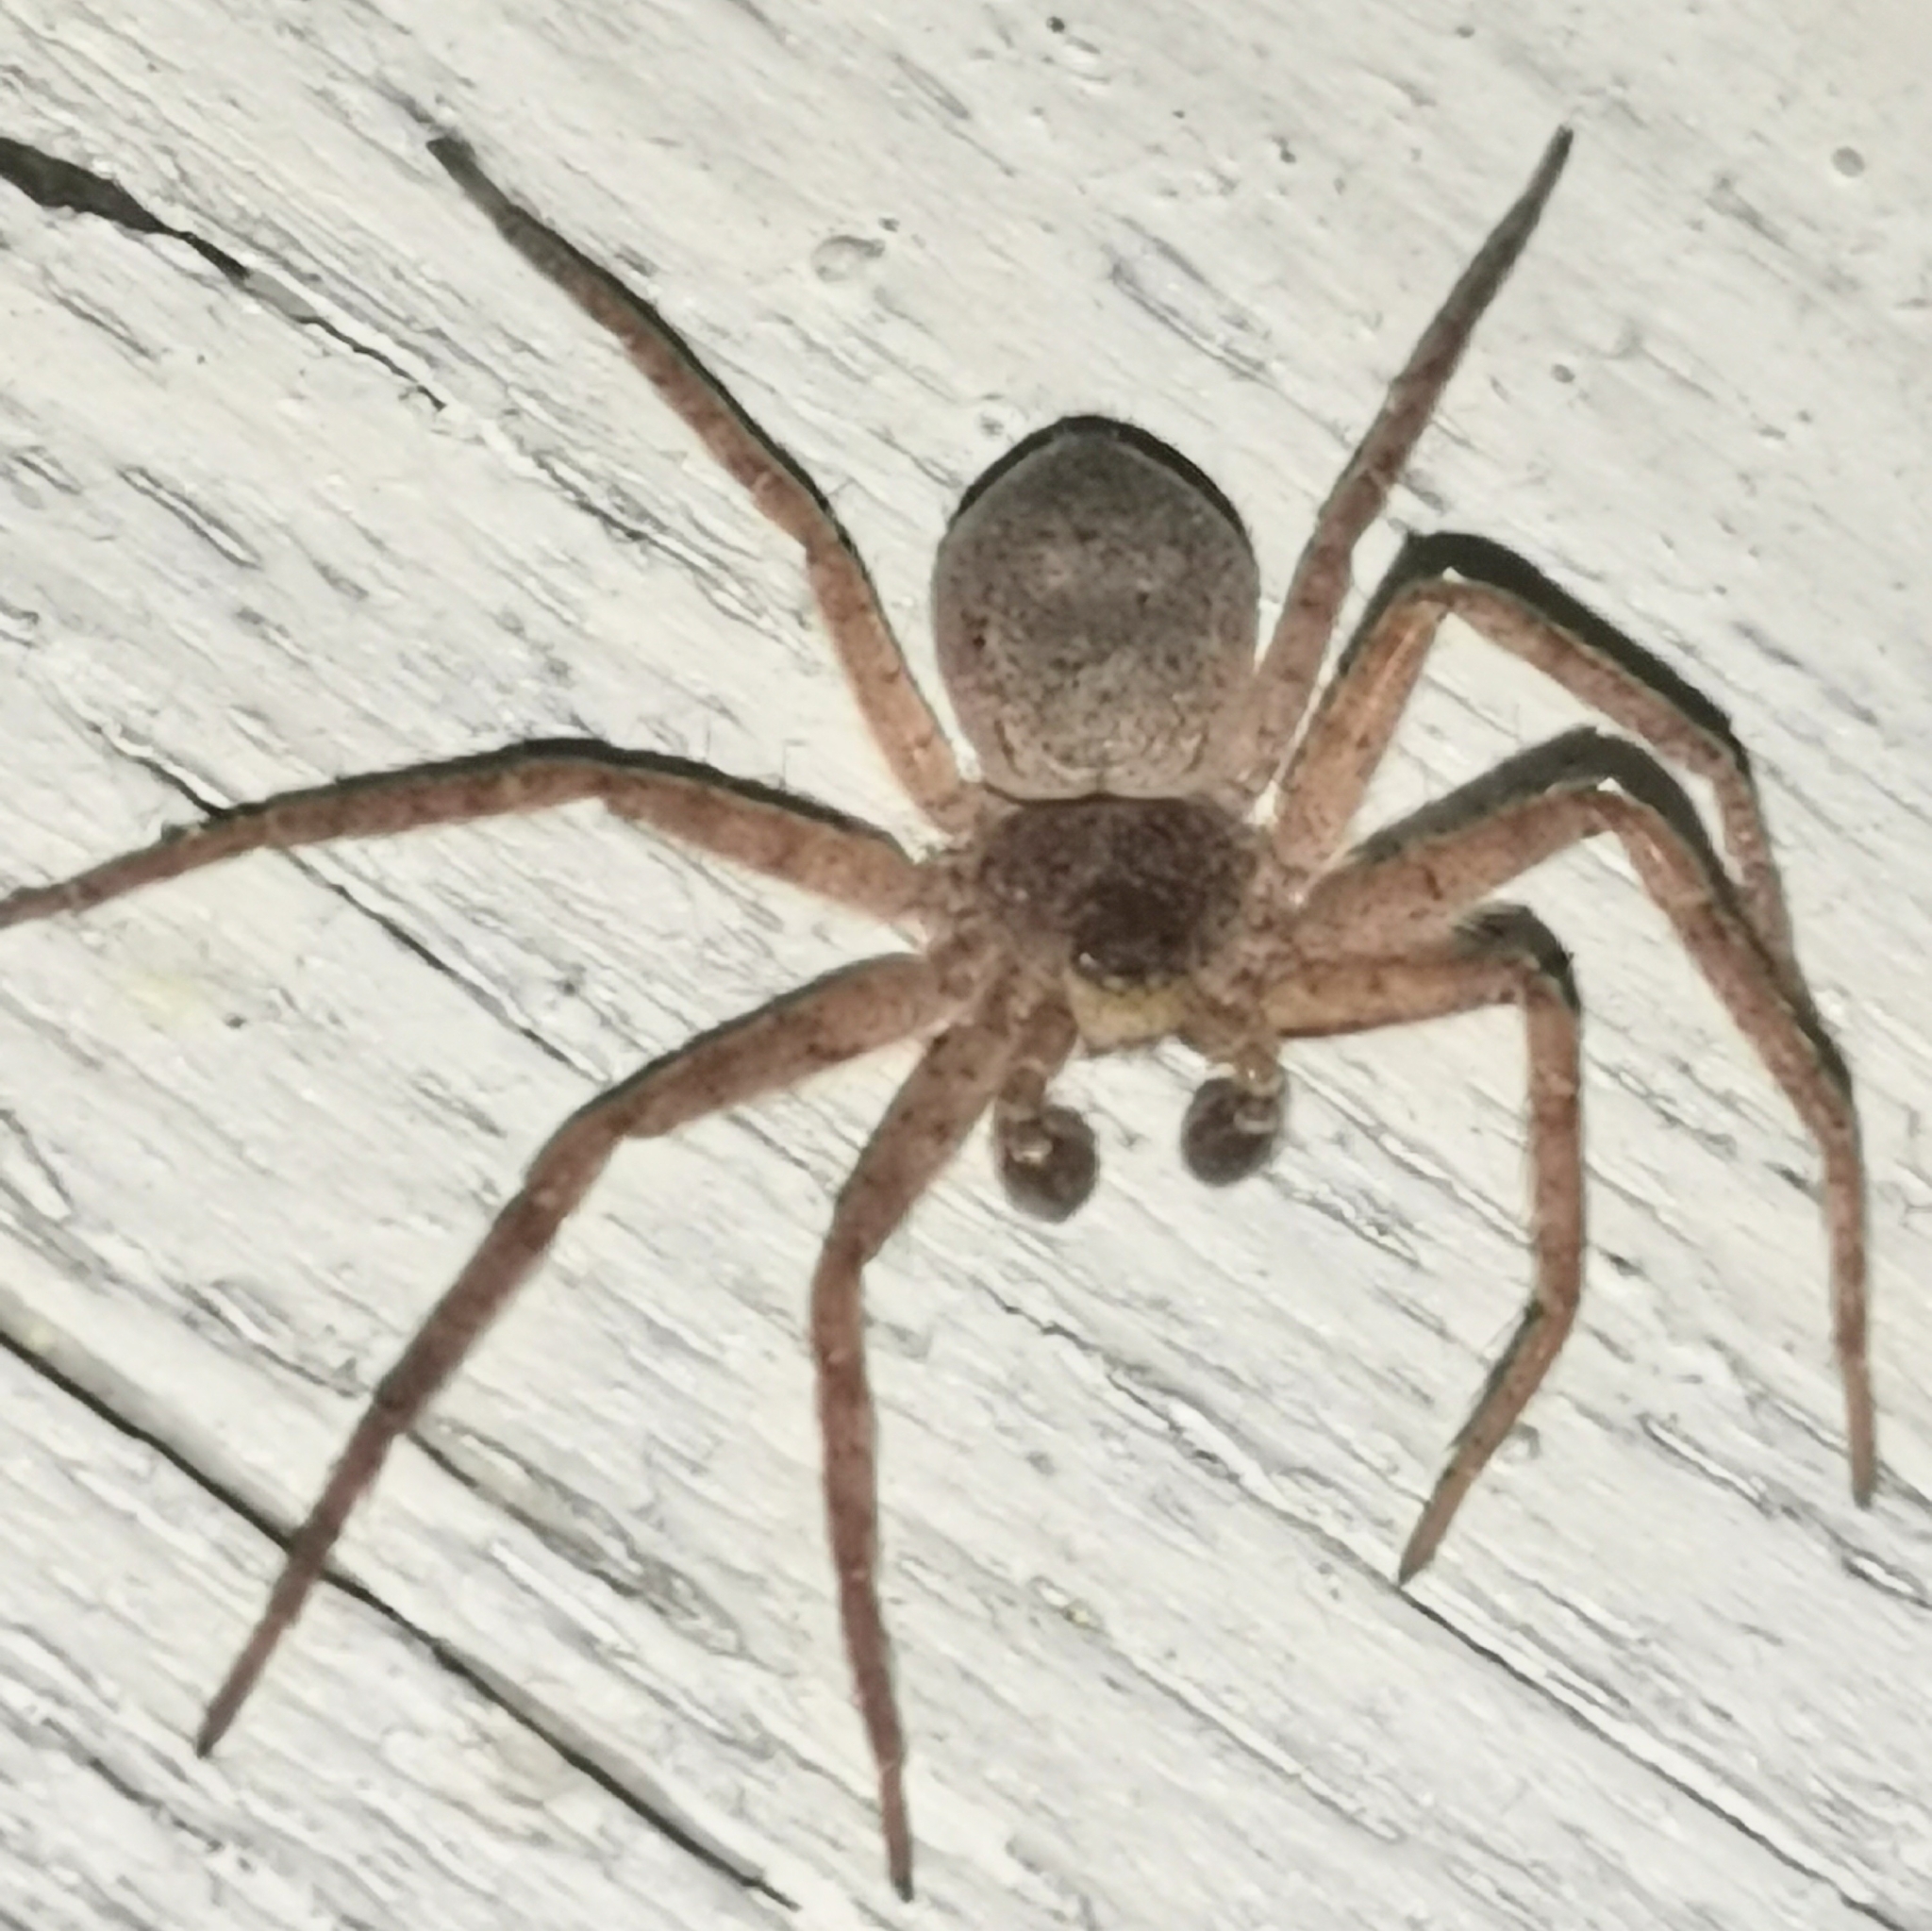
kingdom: Animalia
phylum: Arthropoda
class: Arachnida
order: Araneae
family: Philodromidae
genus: Philodromus
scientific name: Philodromus fuscomarginatus
